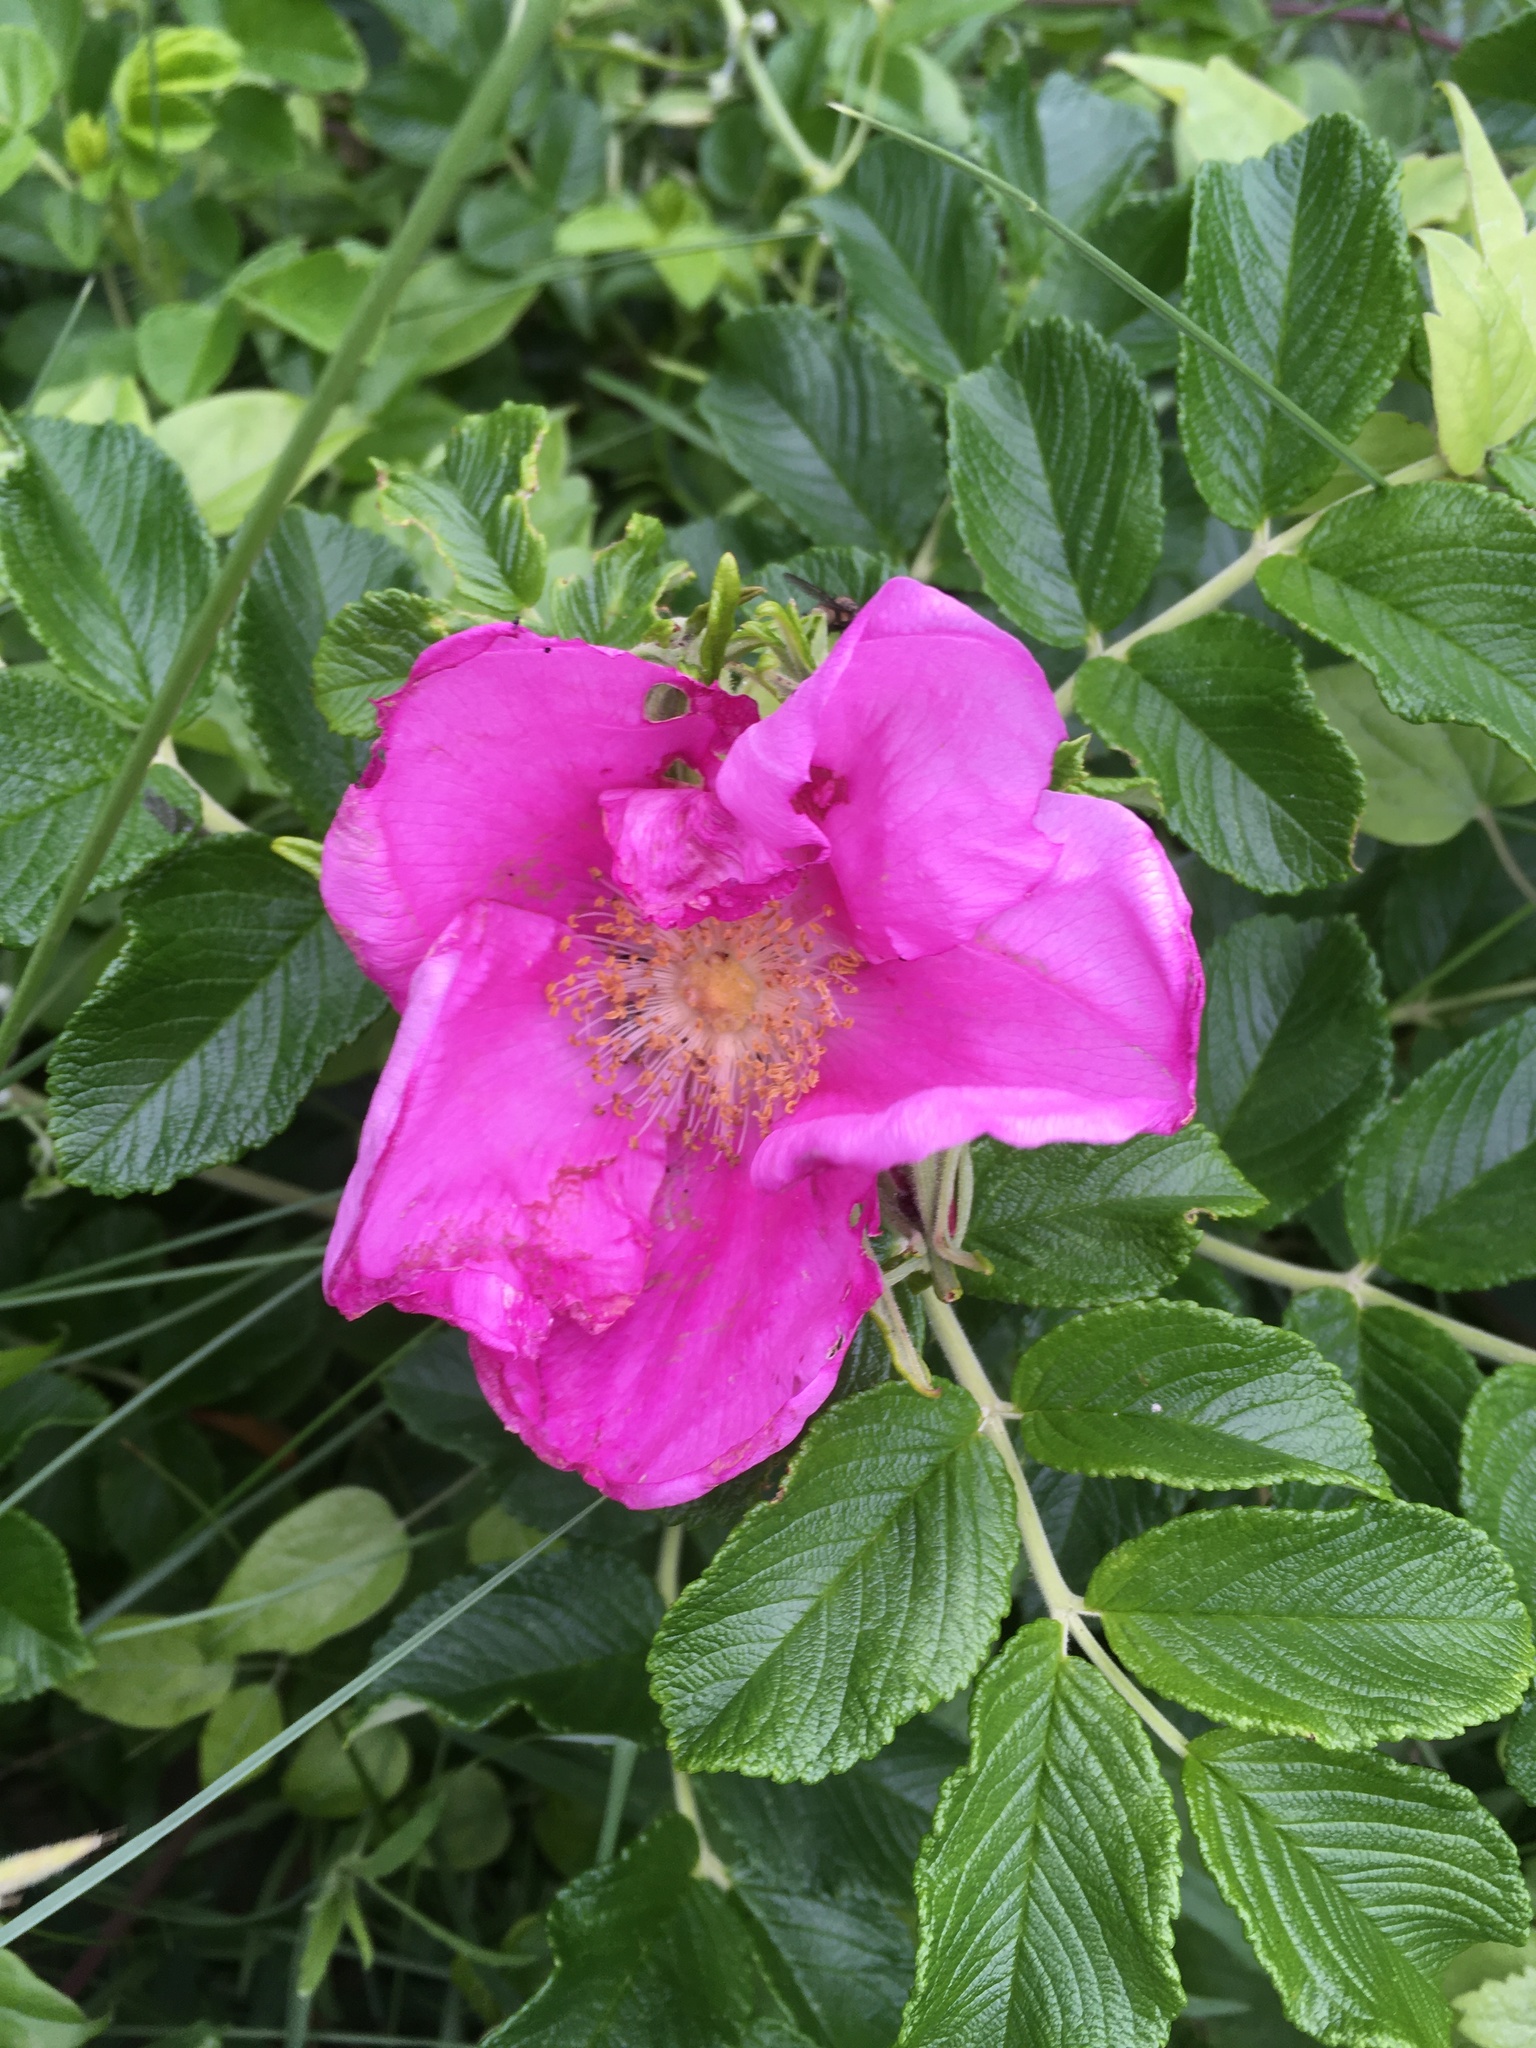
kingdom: Plantae
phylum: Tracheophyta
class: Magnoliopsida
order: Rosales
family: Rosaceae
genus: Rosa
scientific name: Rosa rugosa
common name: Japanese rose
